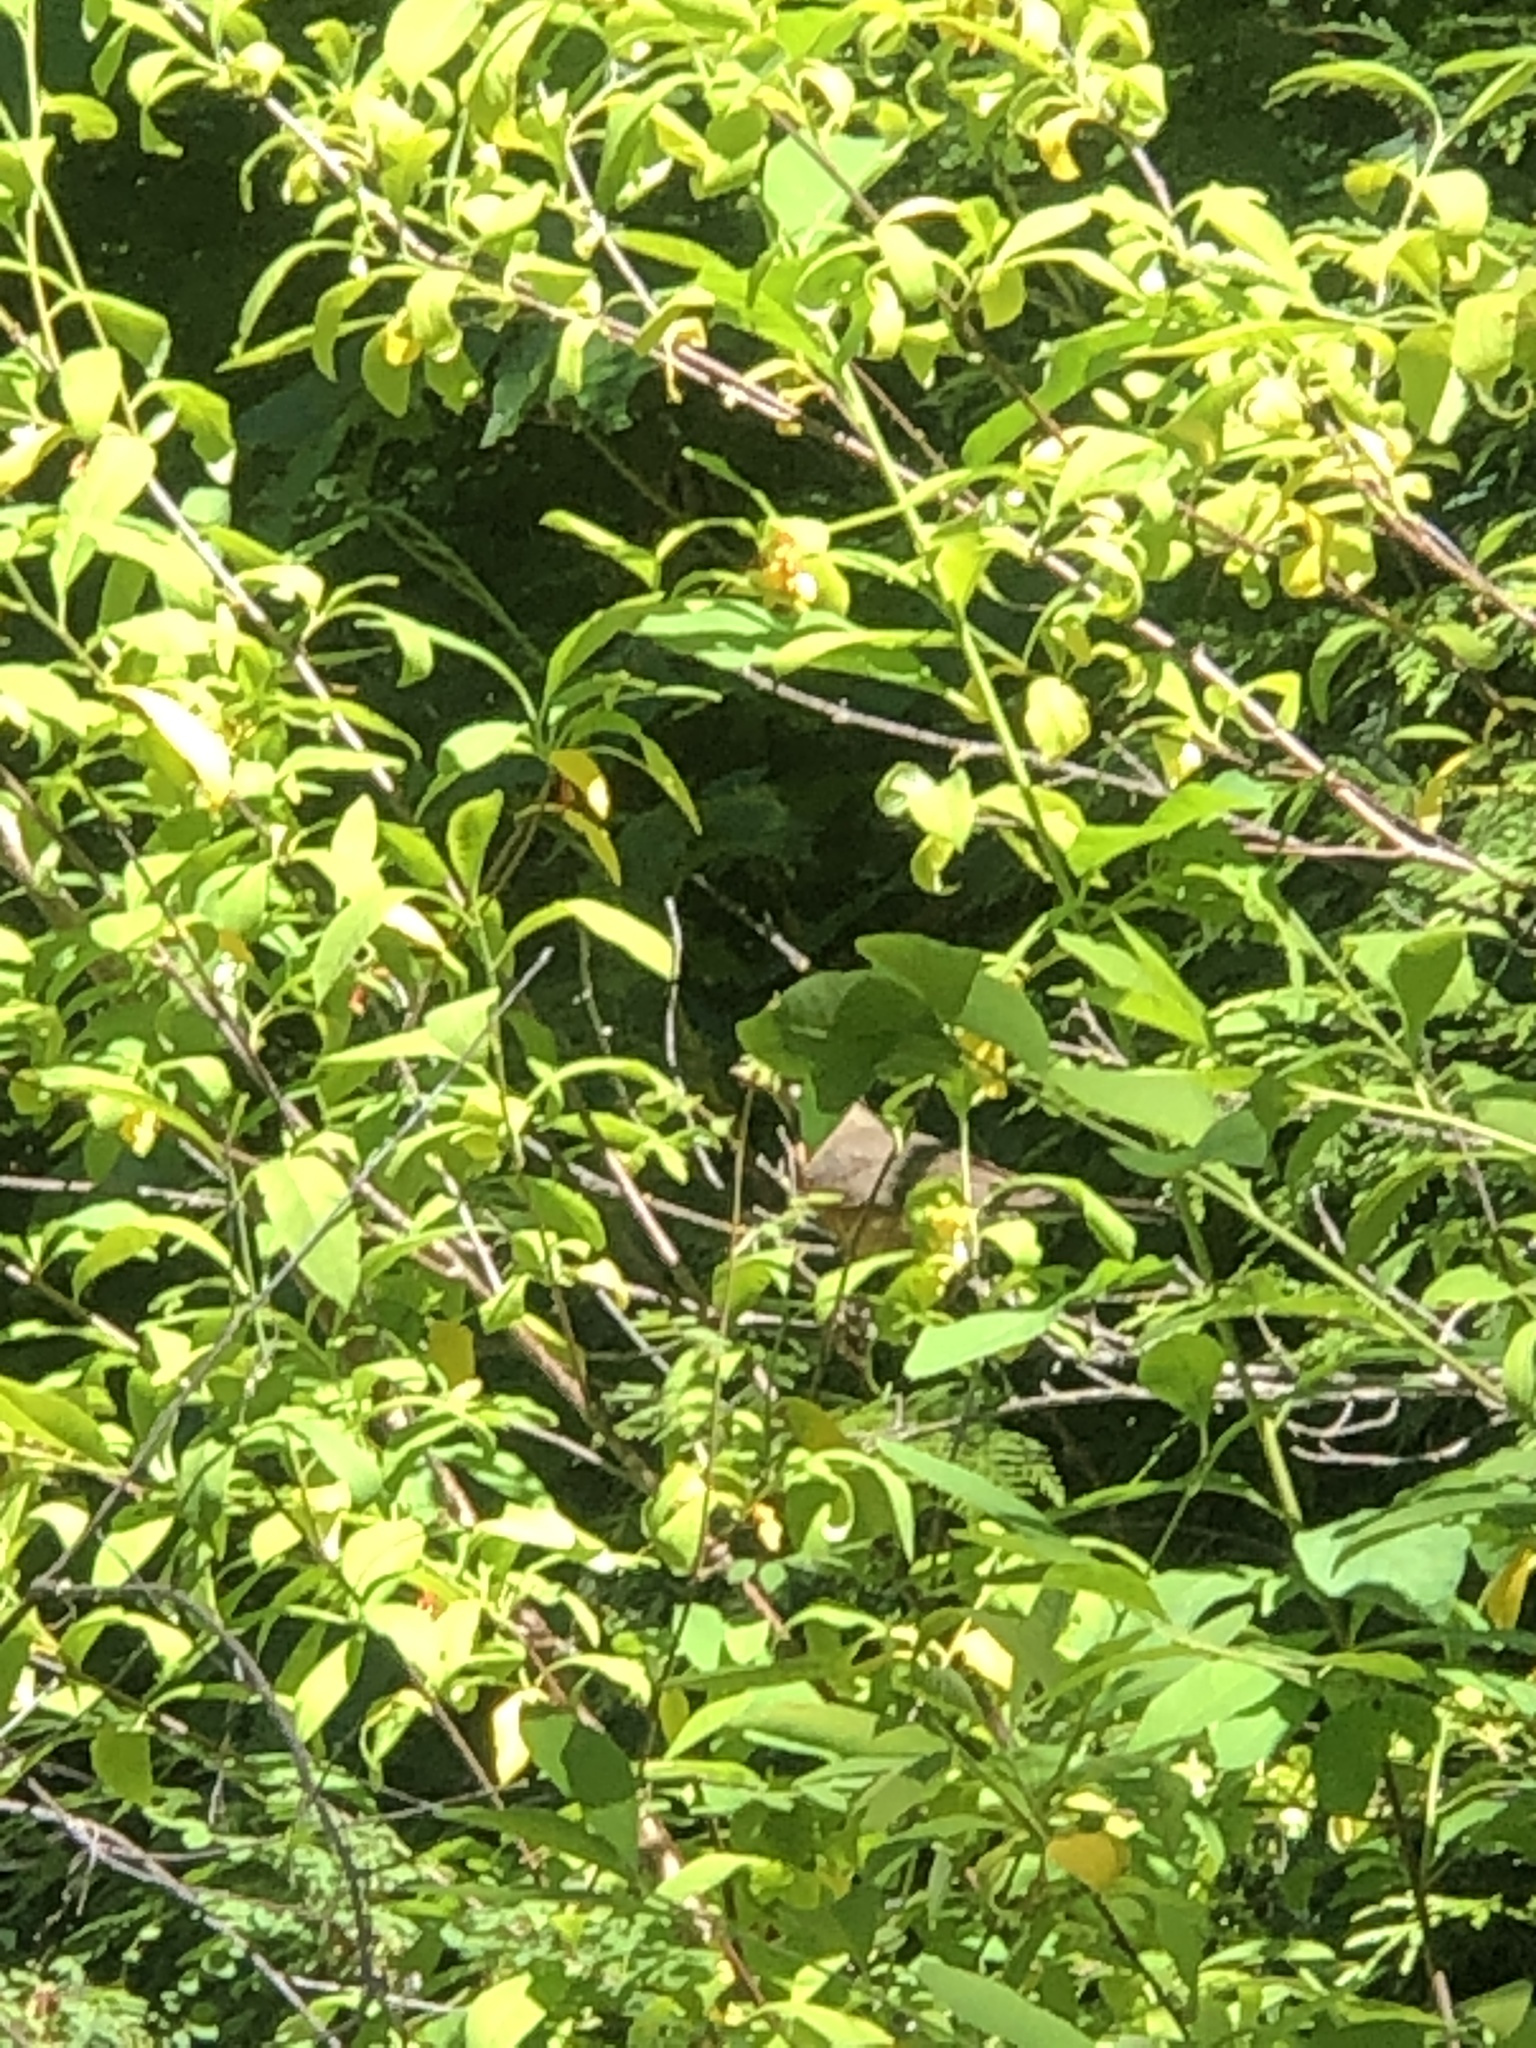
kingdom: Animalia
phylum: Chordata
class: Aves
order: Passeriformes
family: Turdidae
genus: Turdus
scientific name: Turdus migratorius
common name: American robin
